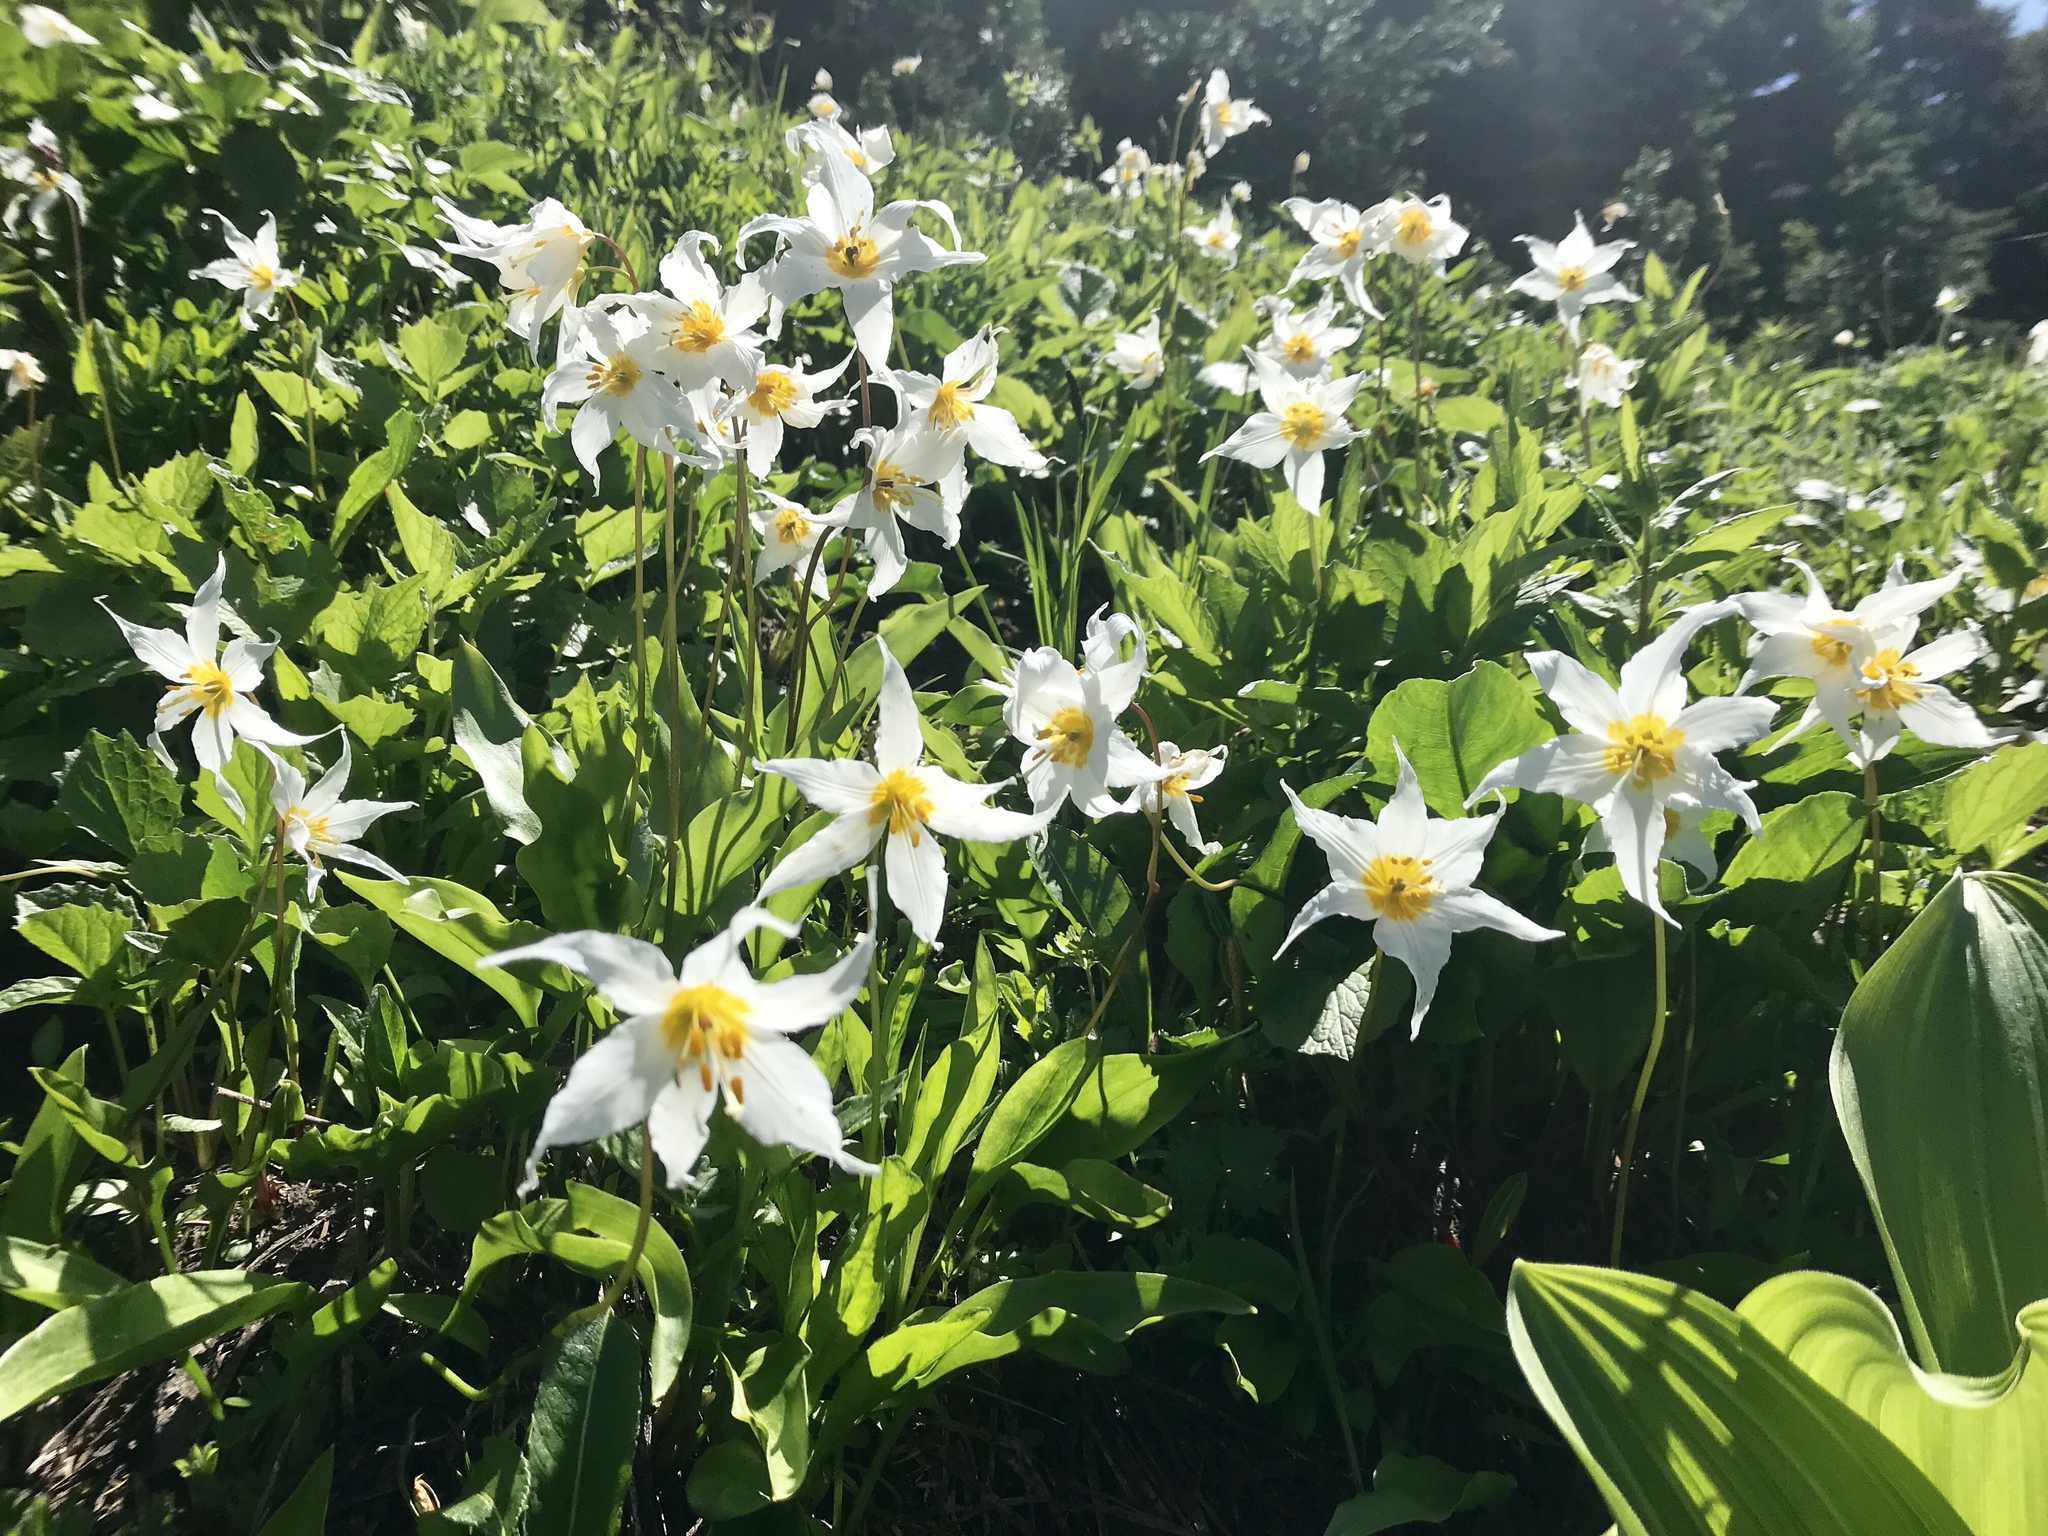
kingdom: Plantae
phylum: Tracheophyta
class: Liliopsida
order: Liliales
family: Liliaceae
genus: Erythronium
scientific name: Erythronium montanum
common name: Avalanche lily
